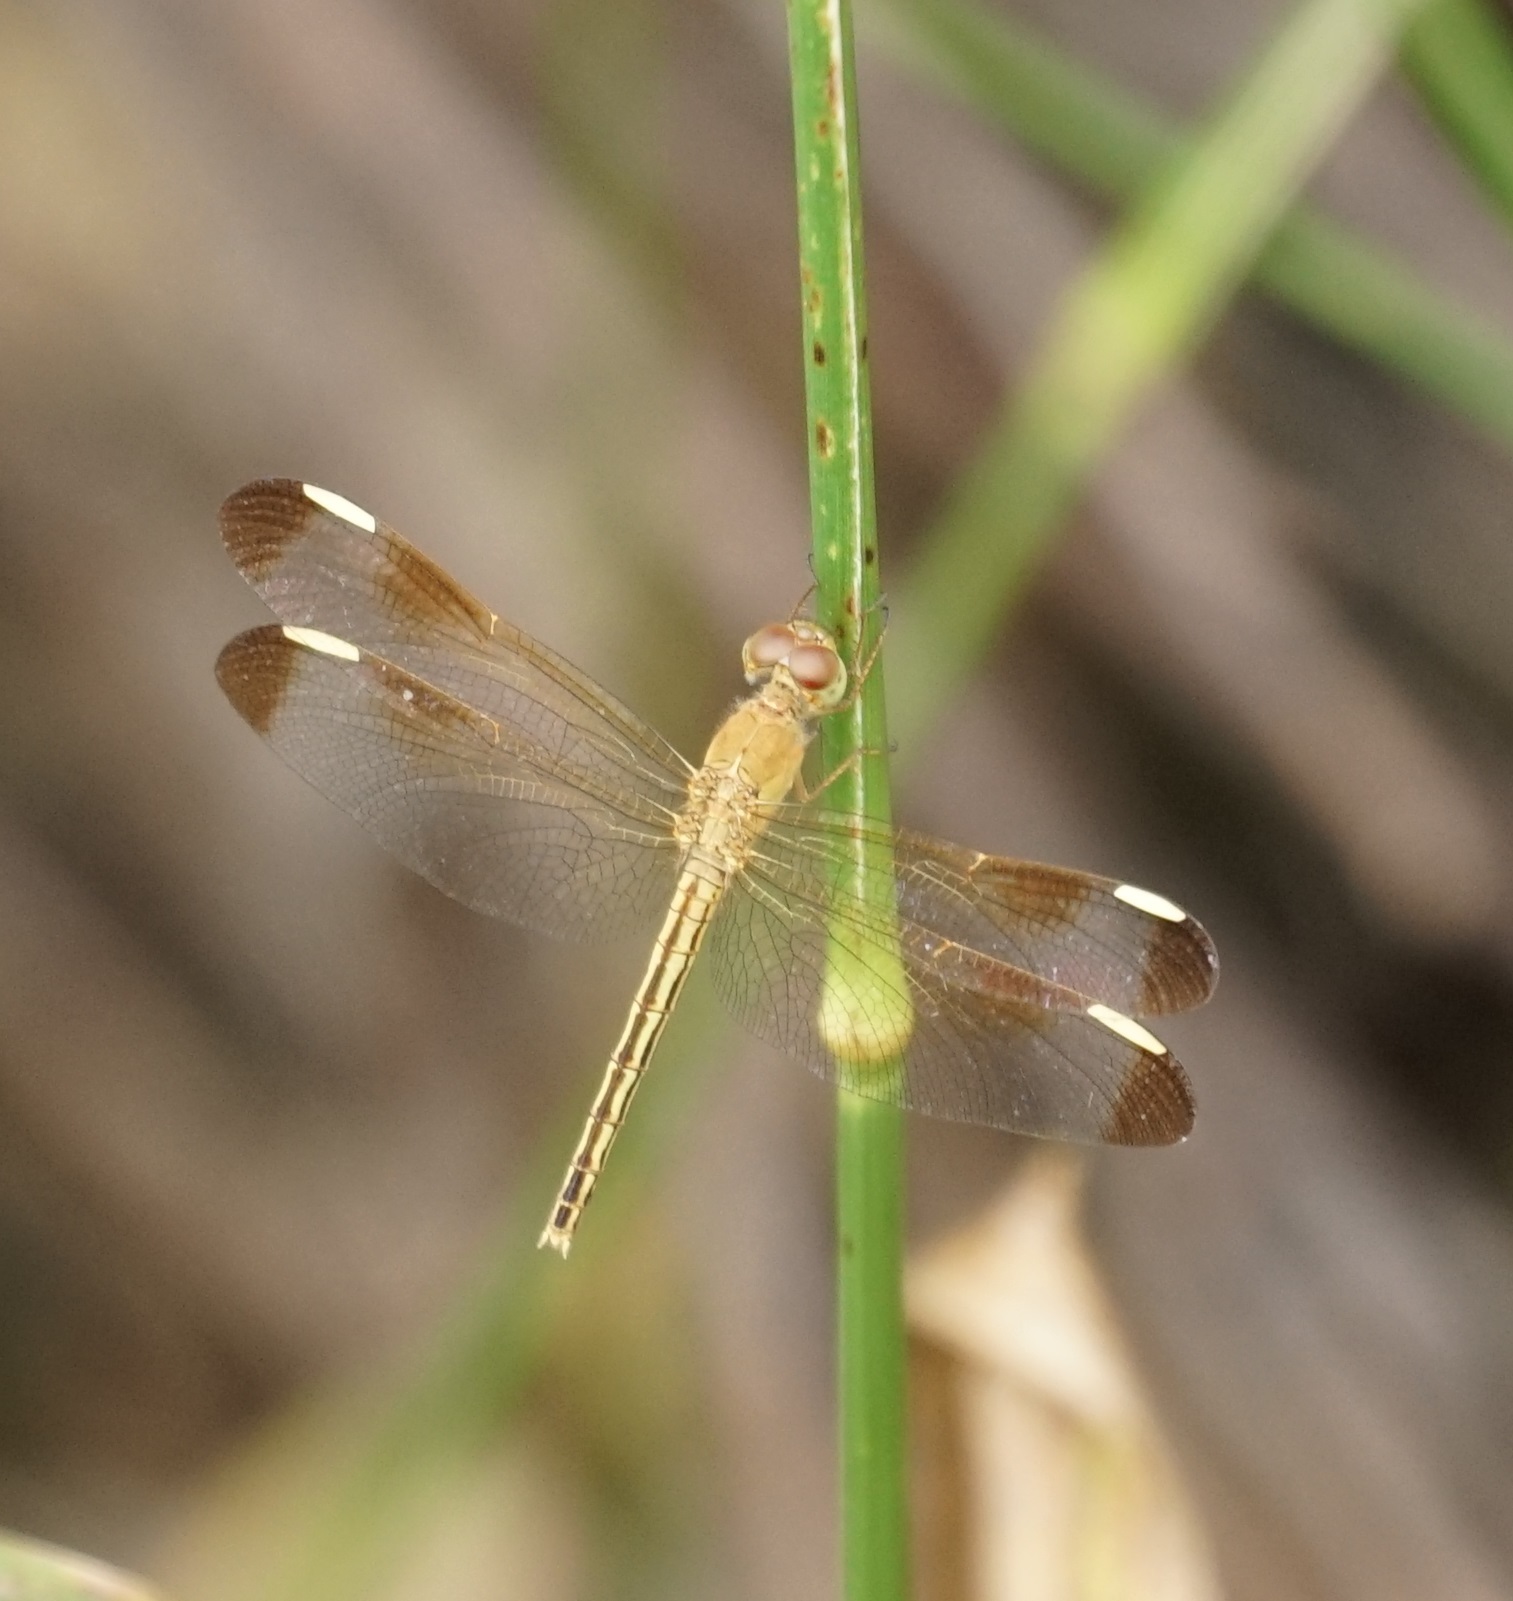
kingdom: Animalia
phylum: Arthropoda
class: Insecta
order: Odonata
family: Libellulidae
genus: Neurothemis
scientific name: Neurothemis stigmatizans
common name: Painted grasshawk
